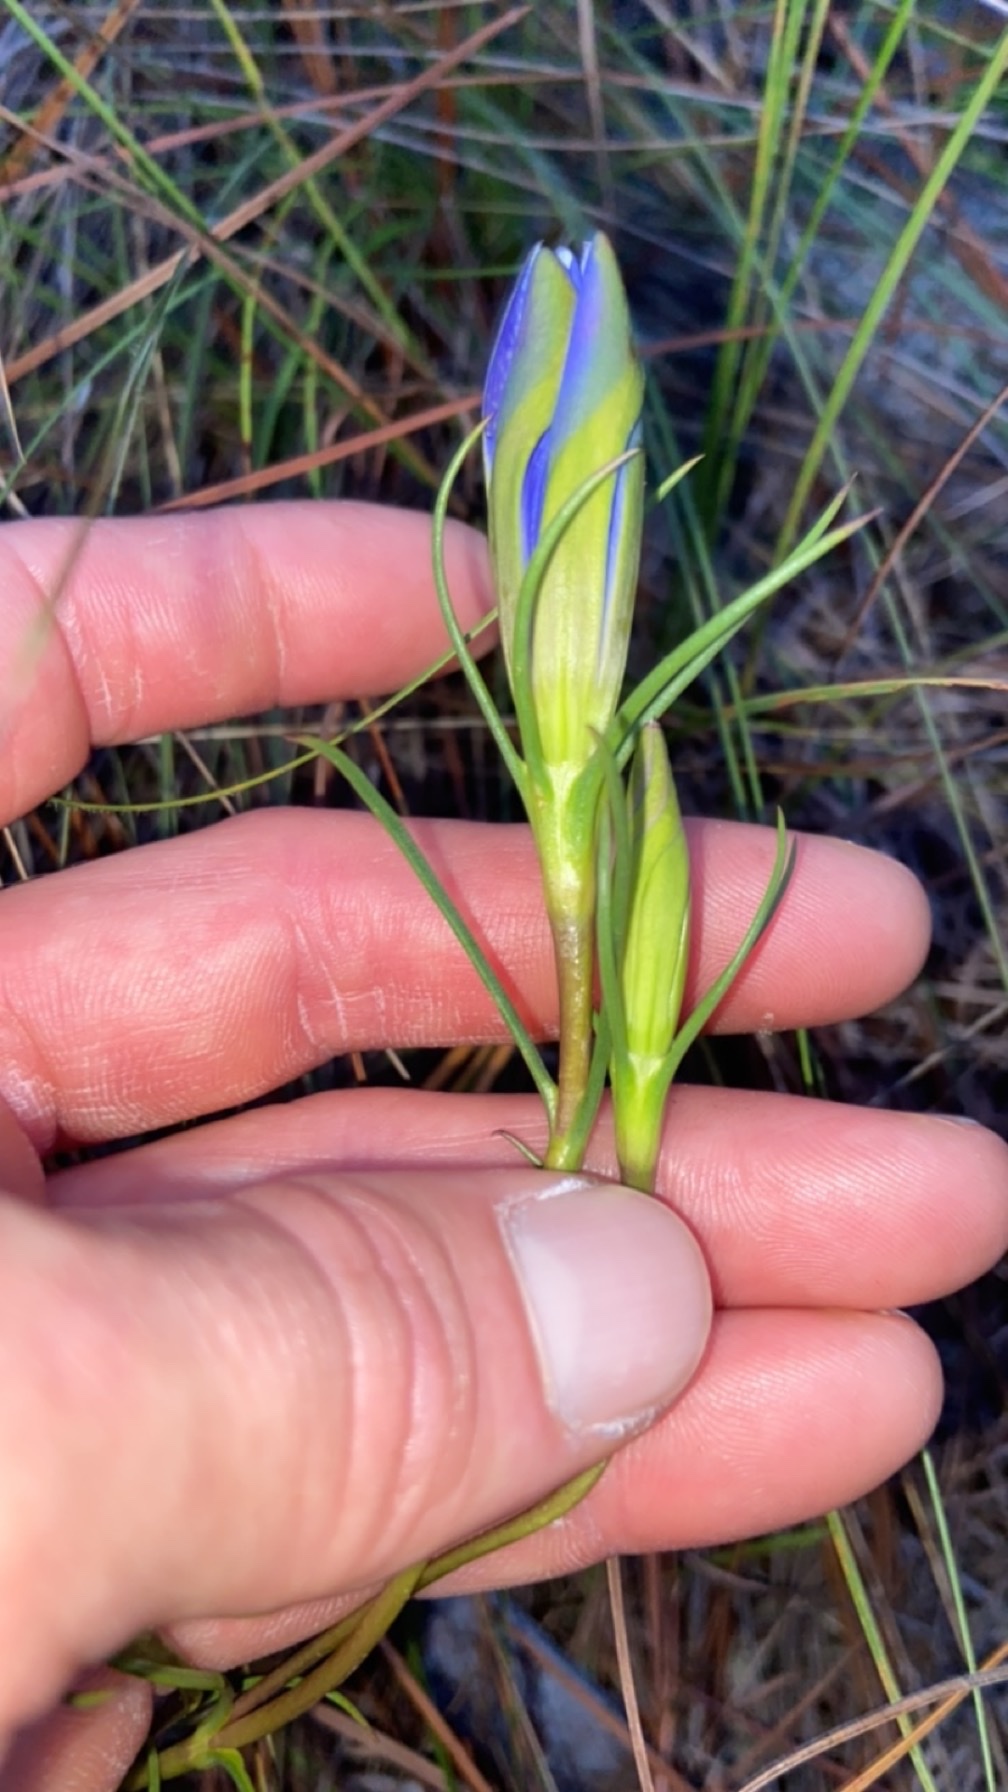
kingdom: Plantae
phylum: Tracheophyta
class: Magnoliopsida
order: Gentianales
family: Gentianaceae
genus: Gentiana
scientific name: Gentiana autumnalis
